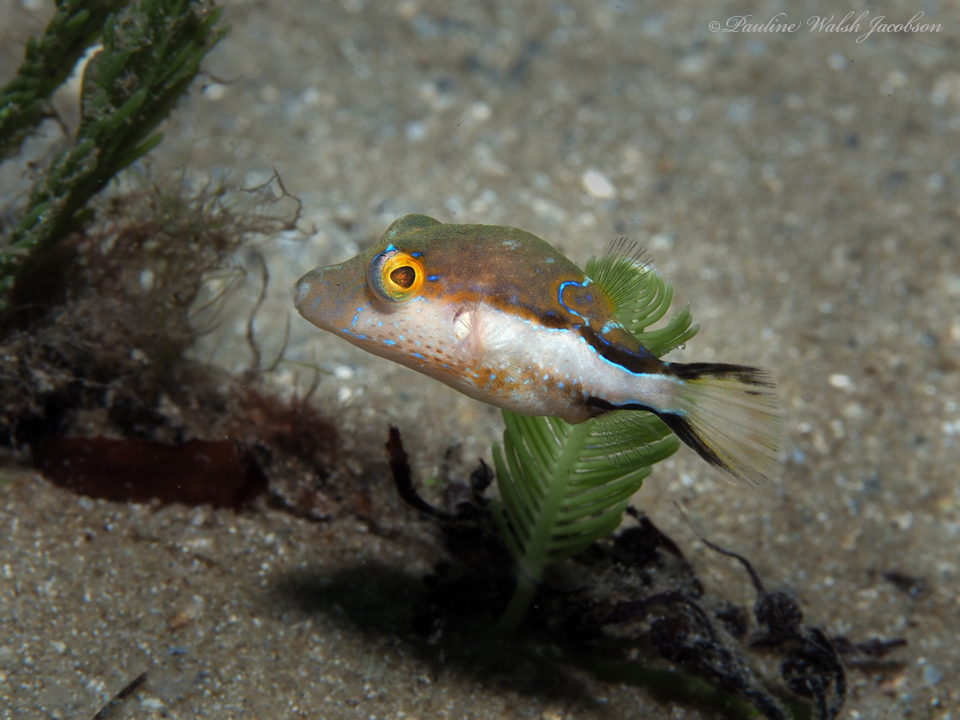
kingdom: Animalia
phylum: Chordata
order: Tetraodontiformes
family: Tetraodontidae
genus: Canthigaster
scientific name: Canthigaster rostrata
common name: Caribbean sharpnose-puffer
